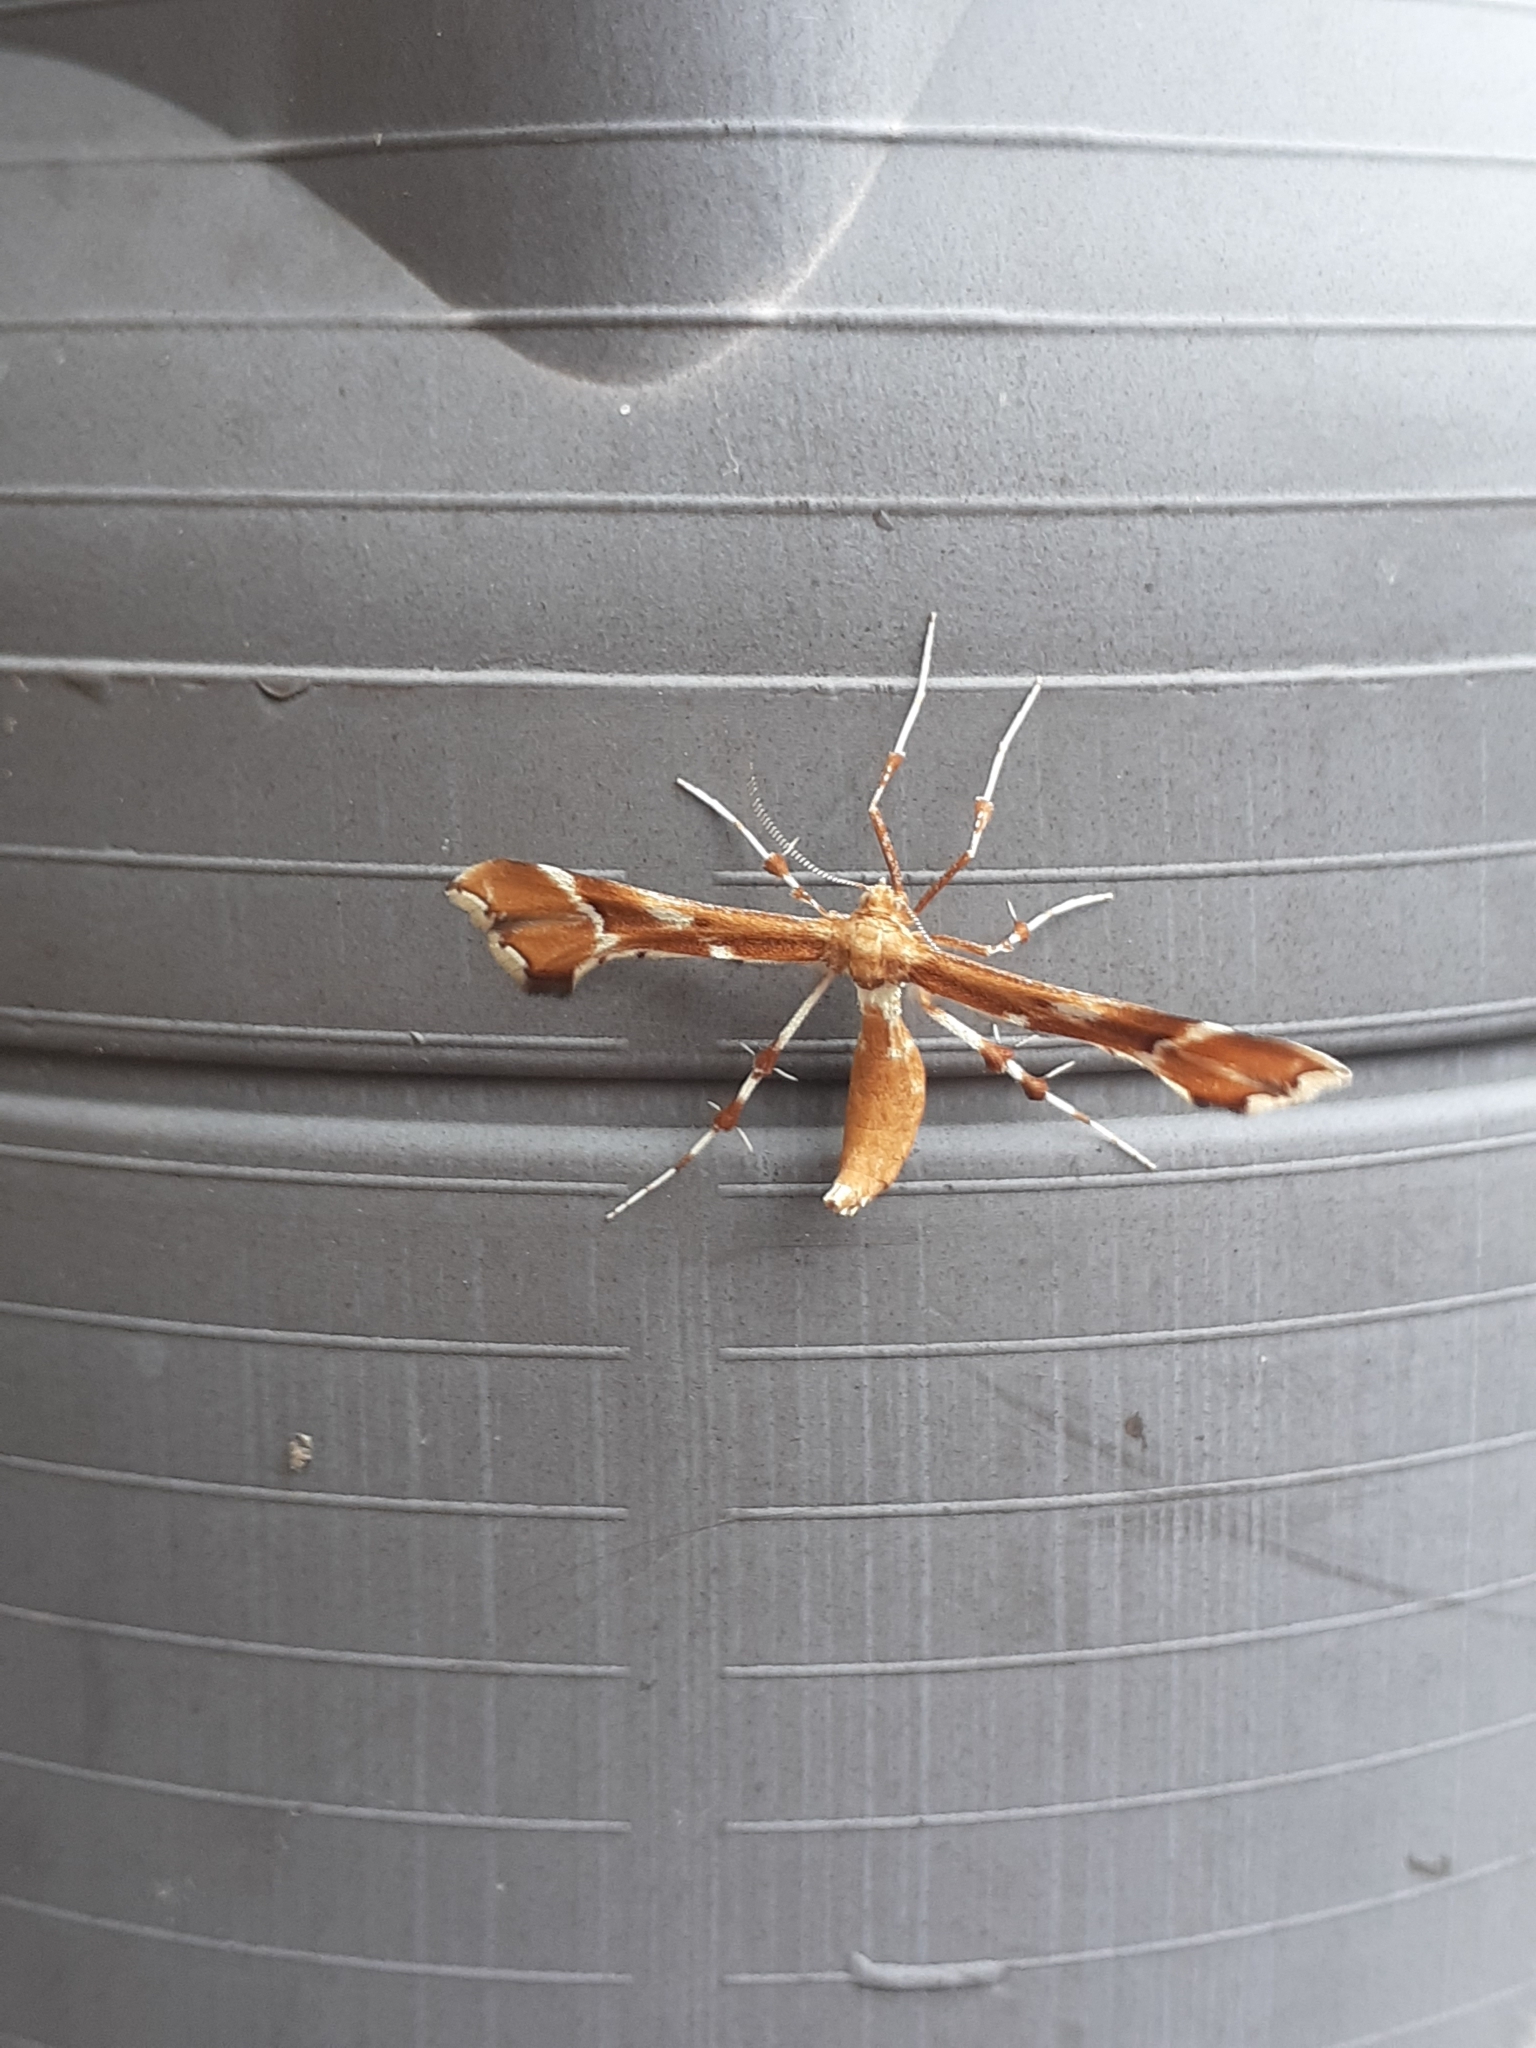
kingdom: Animalia
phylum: Arthropoda
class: Insecta
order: Lepidoptera
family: Pterophoridae
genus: Cnaemidophorus
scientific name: Cnaemidophorus rhododactyla
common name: Rose plume
